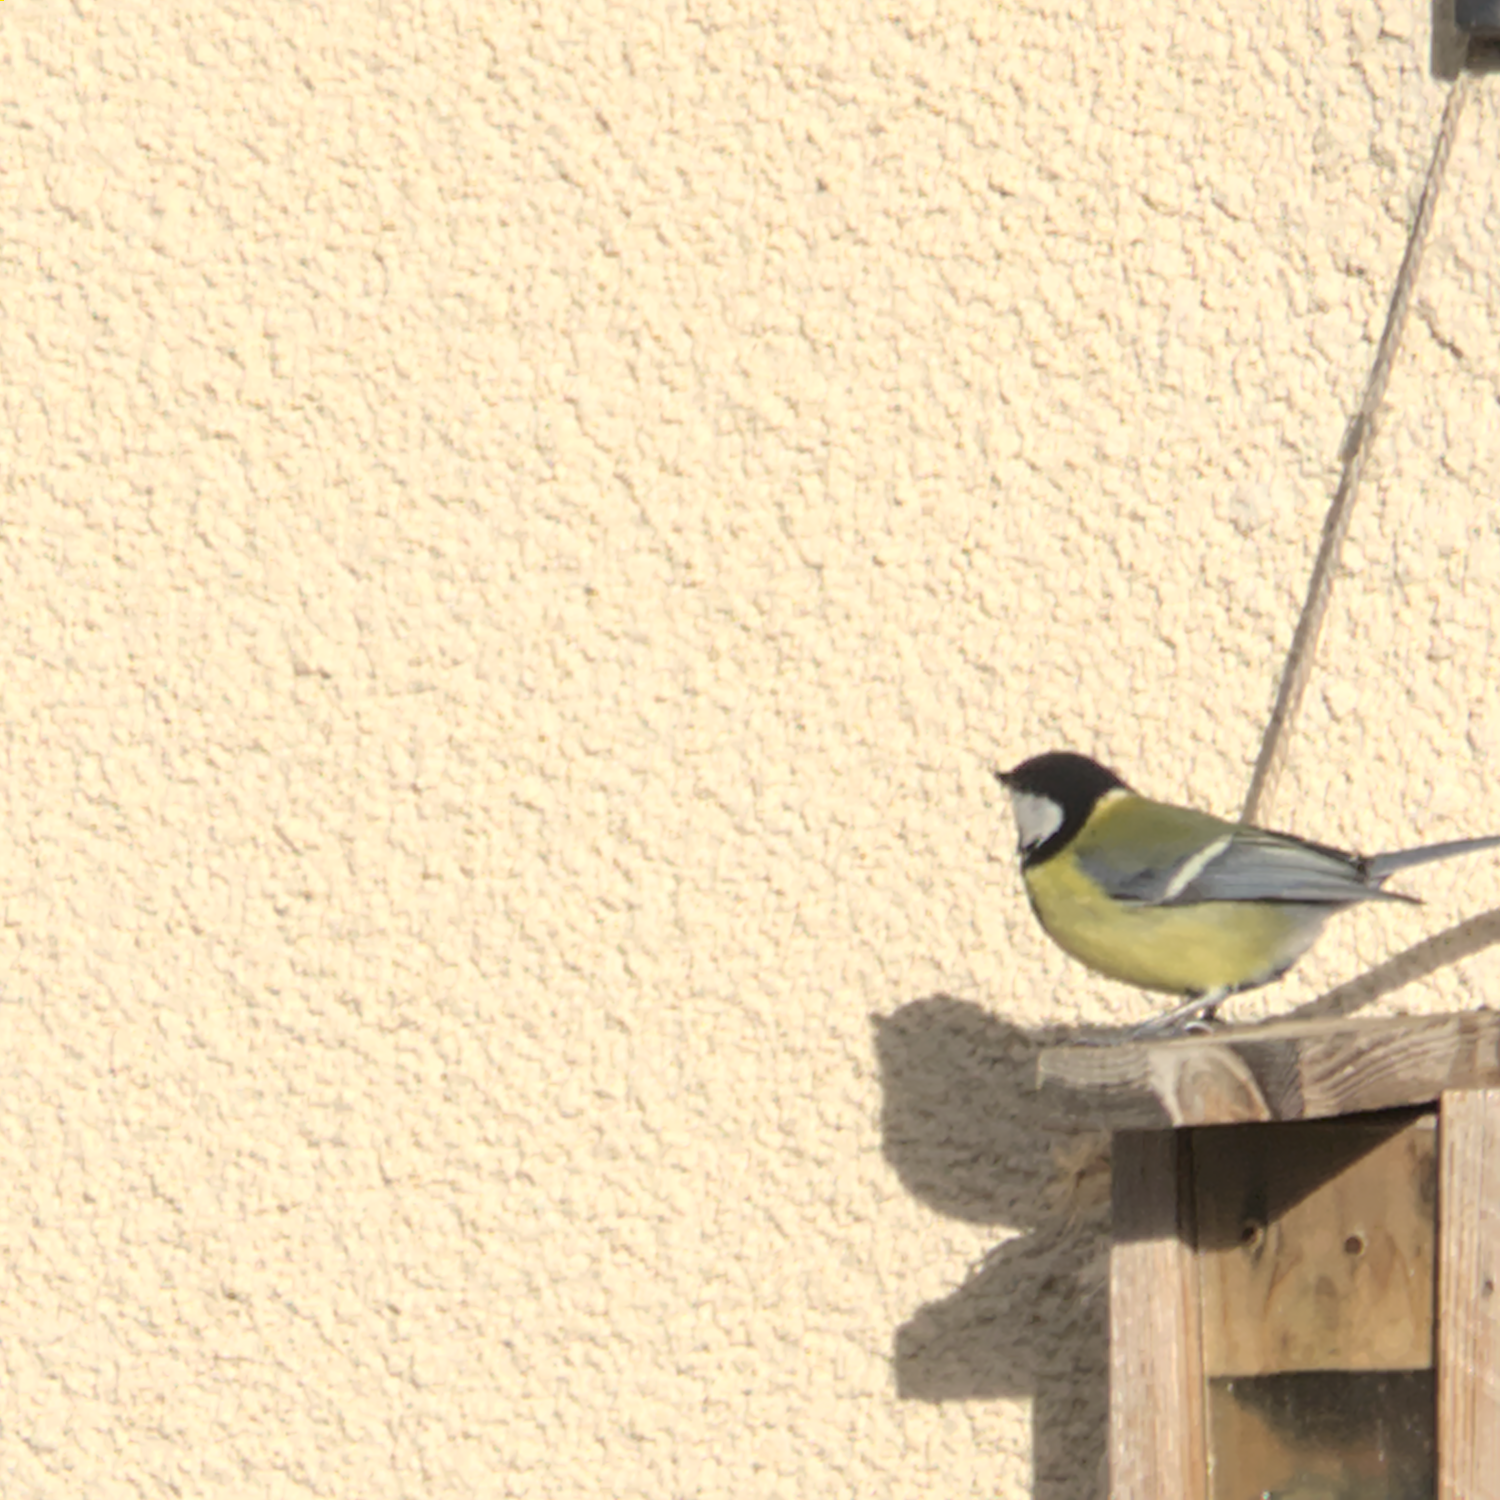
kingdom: Animalia
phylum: Chordata
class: Aves
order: Passeriformes
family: Paridae
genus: Parus
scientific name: Parus major
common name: Great tit
